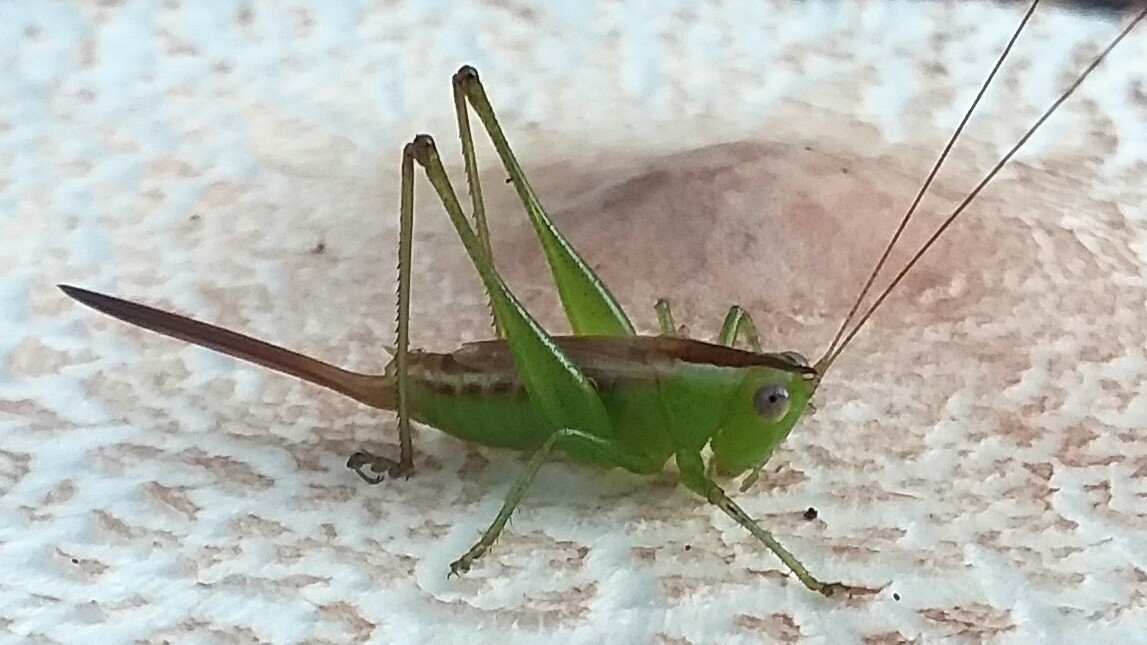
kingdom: Animalia
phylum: Arthropoda
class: Insecta
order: Orthoptera
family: Tettigoniidae
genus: Conocephalus
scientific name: Conocephalus brevipennis
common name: Short-winged meadow katydid
